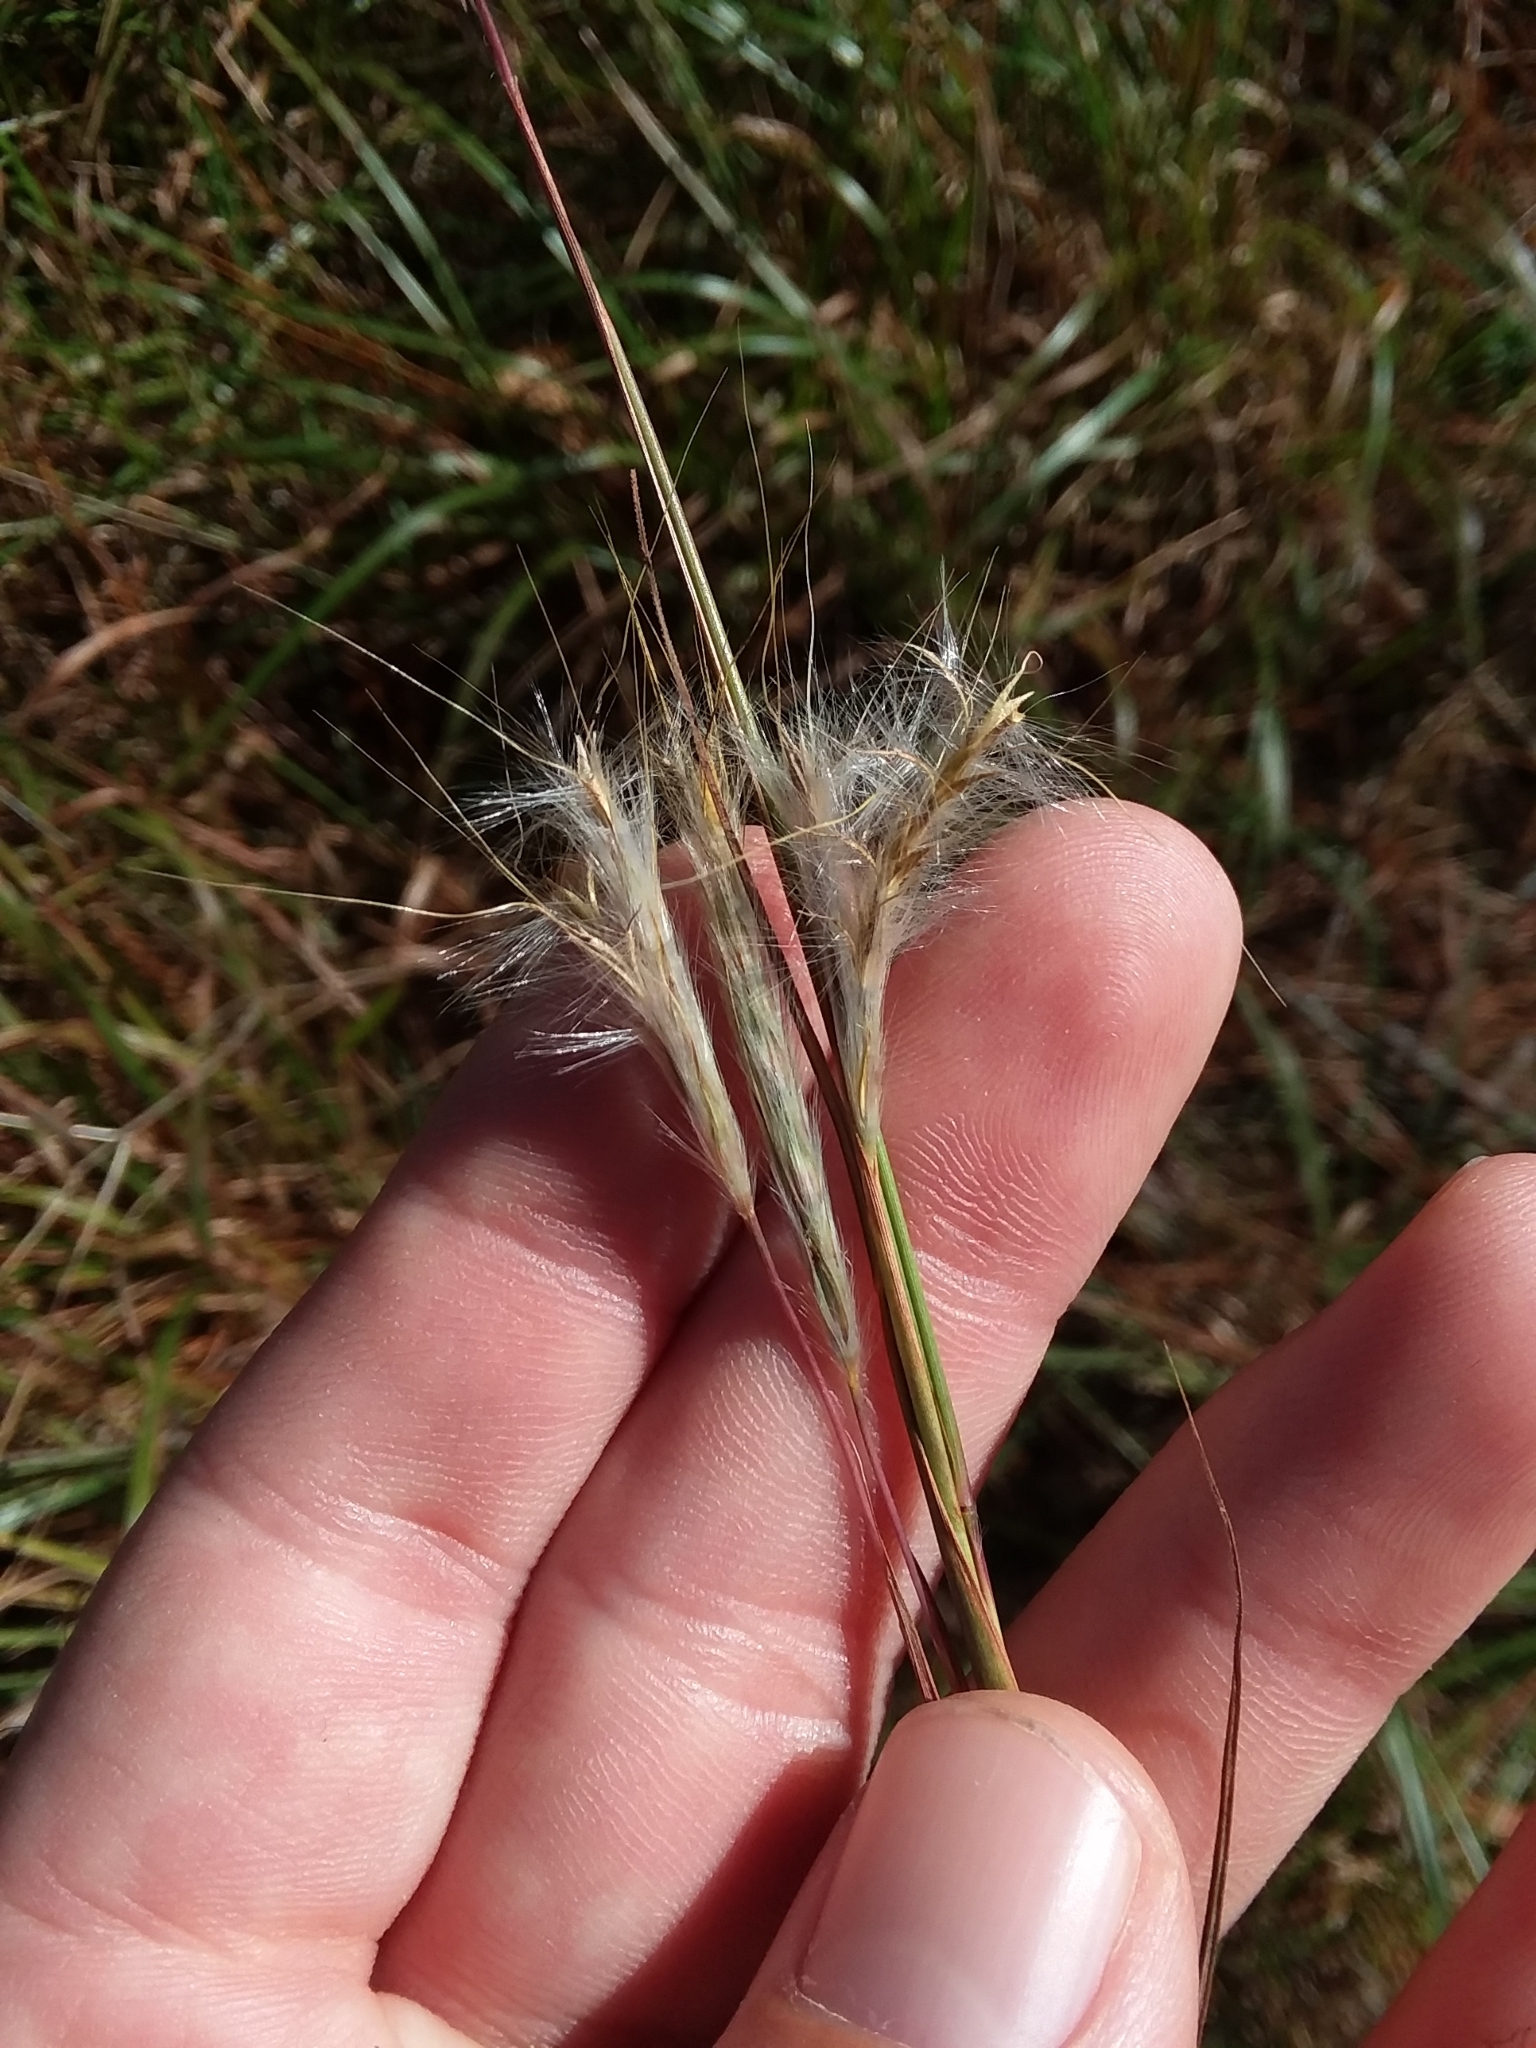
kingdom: Plantae
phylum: Tracheophyta
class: Liliopsida
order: Poales
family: Poaceae
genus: Andropogon
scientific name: Andropogon ternarius
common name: Split bluestem
